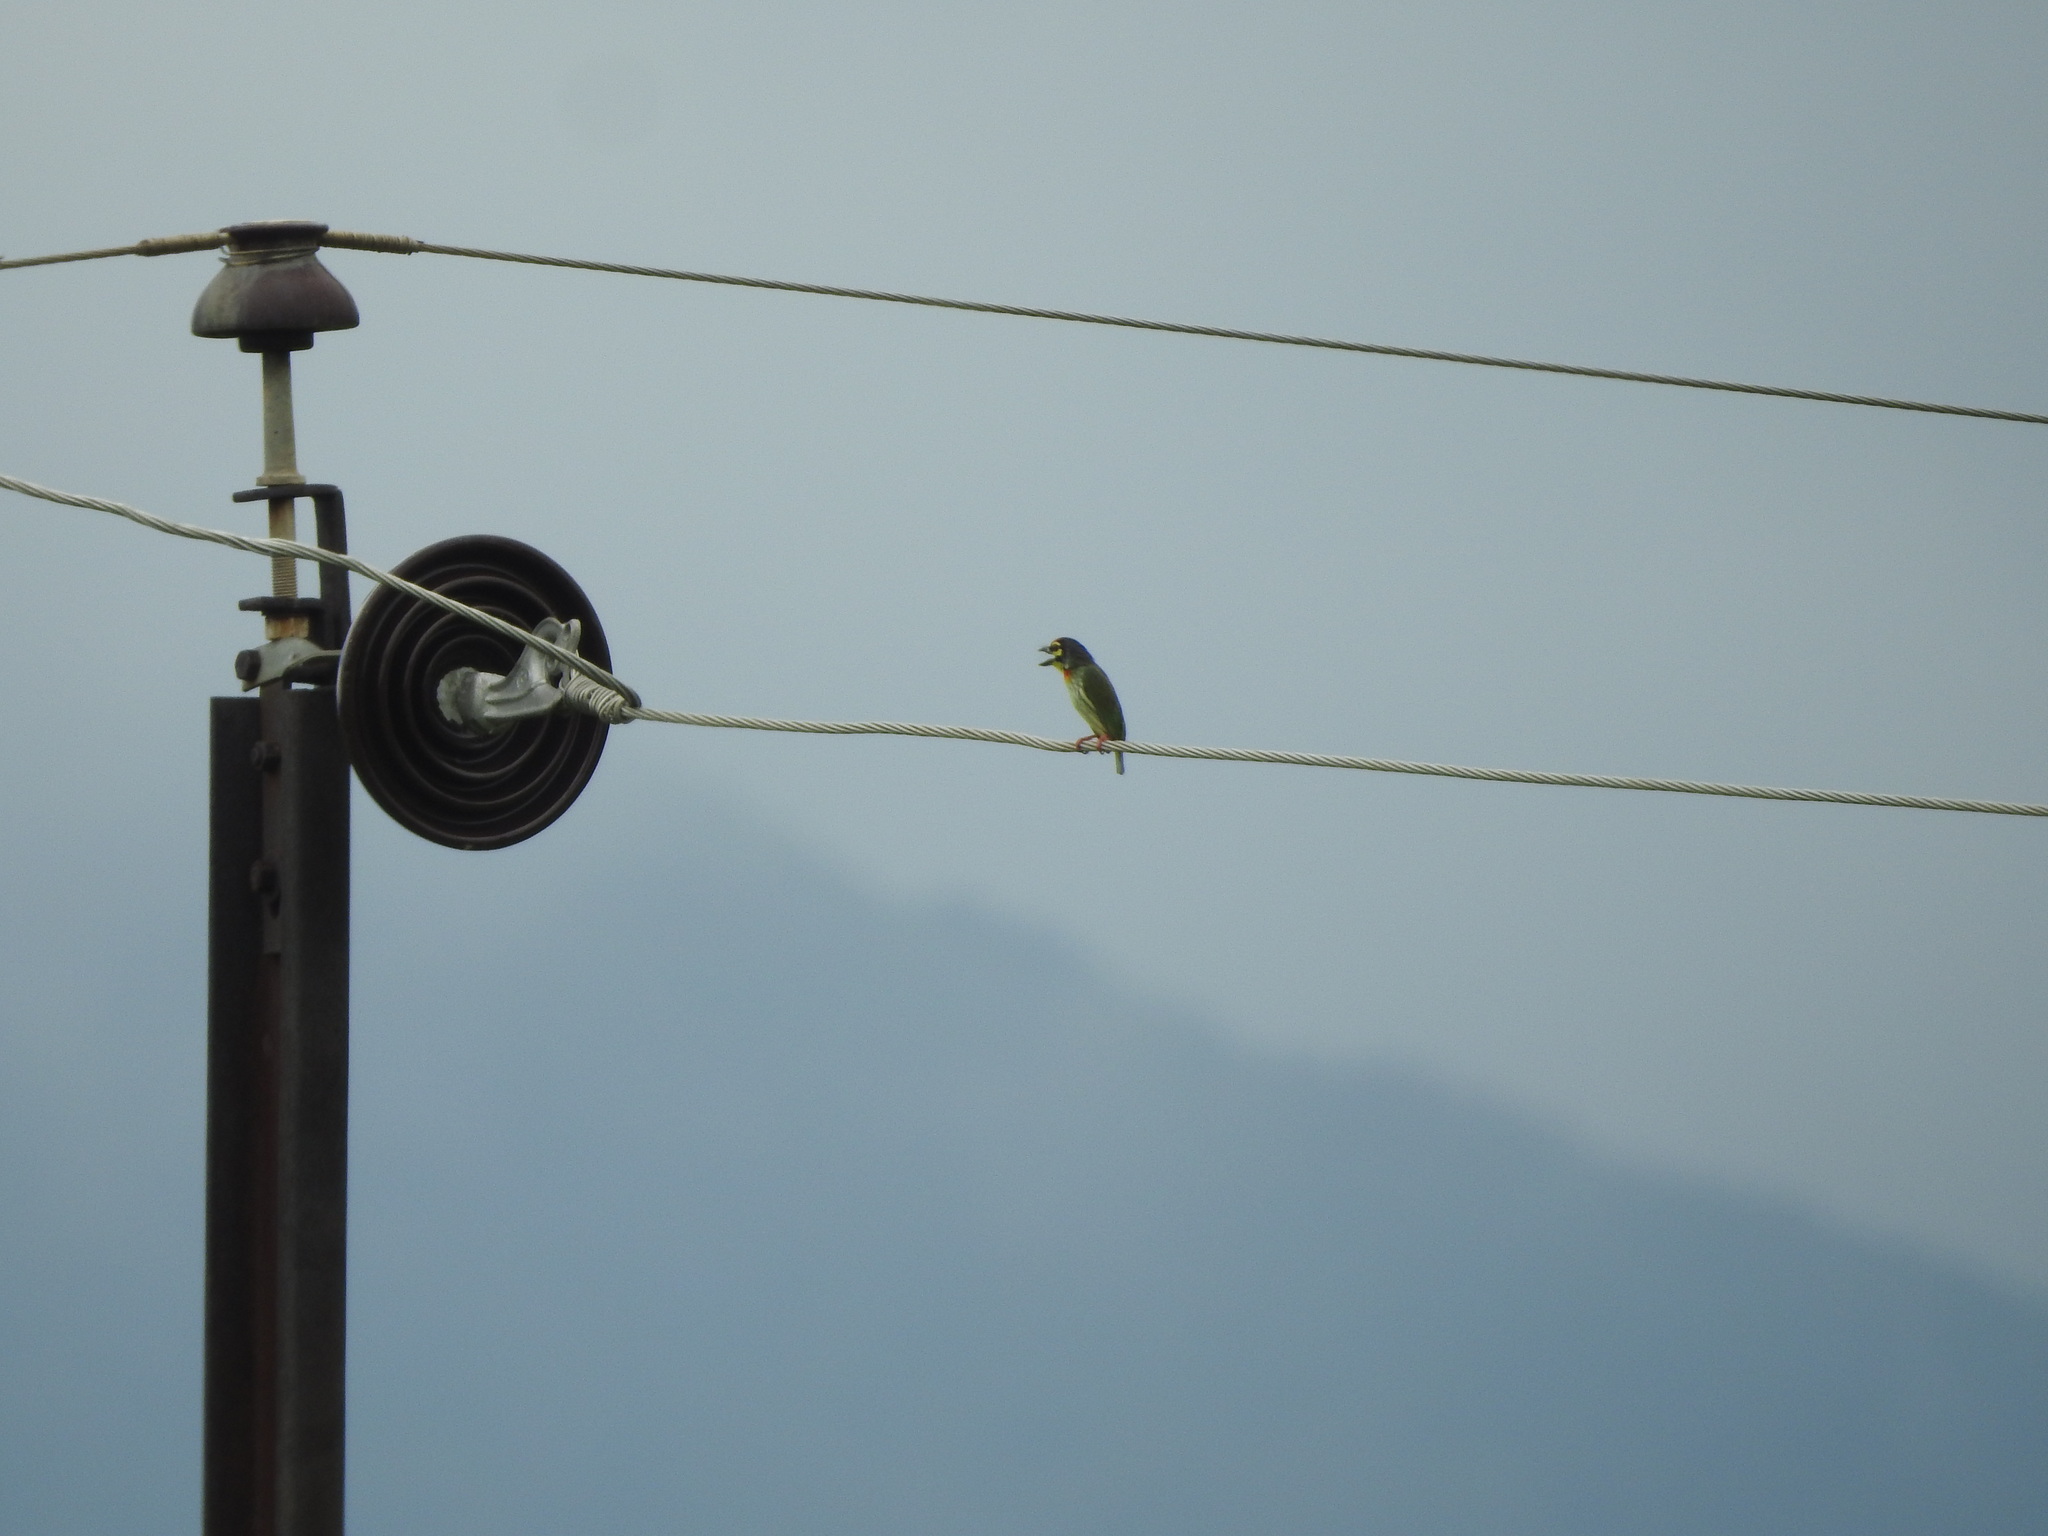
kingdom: Animalia
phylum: Chordata
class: Aves
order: Piciformes
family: Megalaimidae
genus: Psilopogon
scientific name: Psilopogon haemacephalus
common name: Coppersmith barbet
